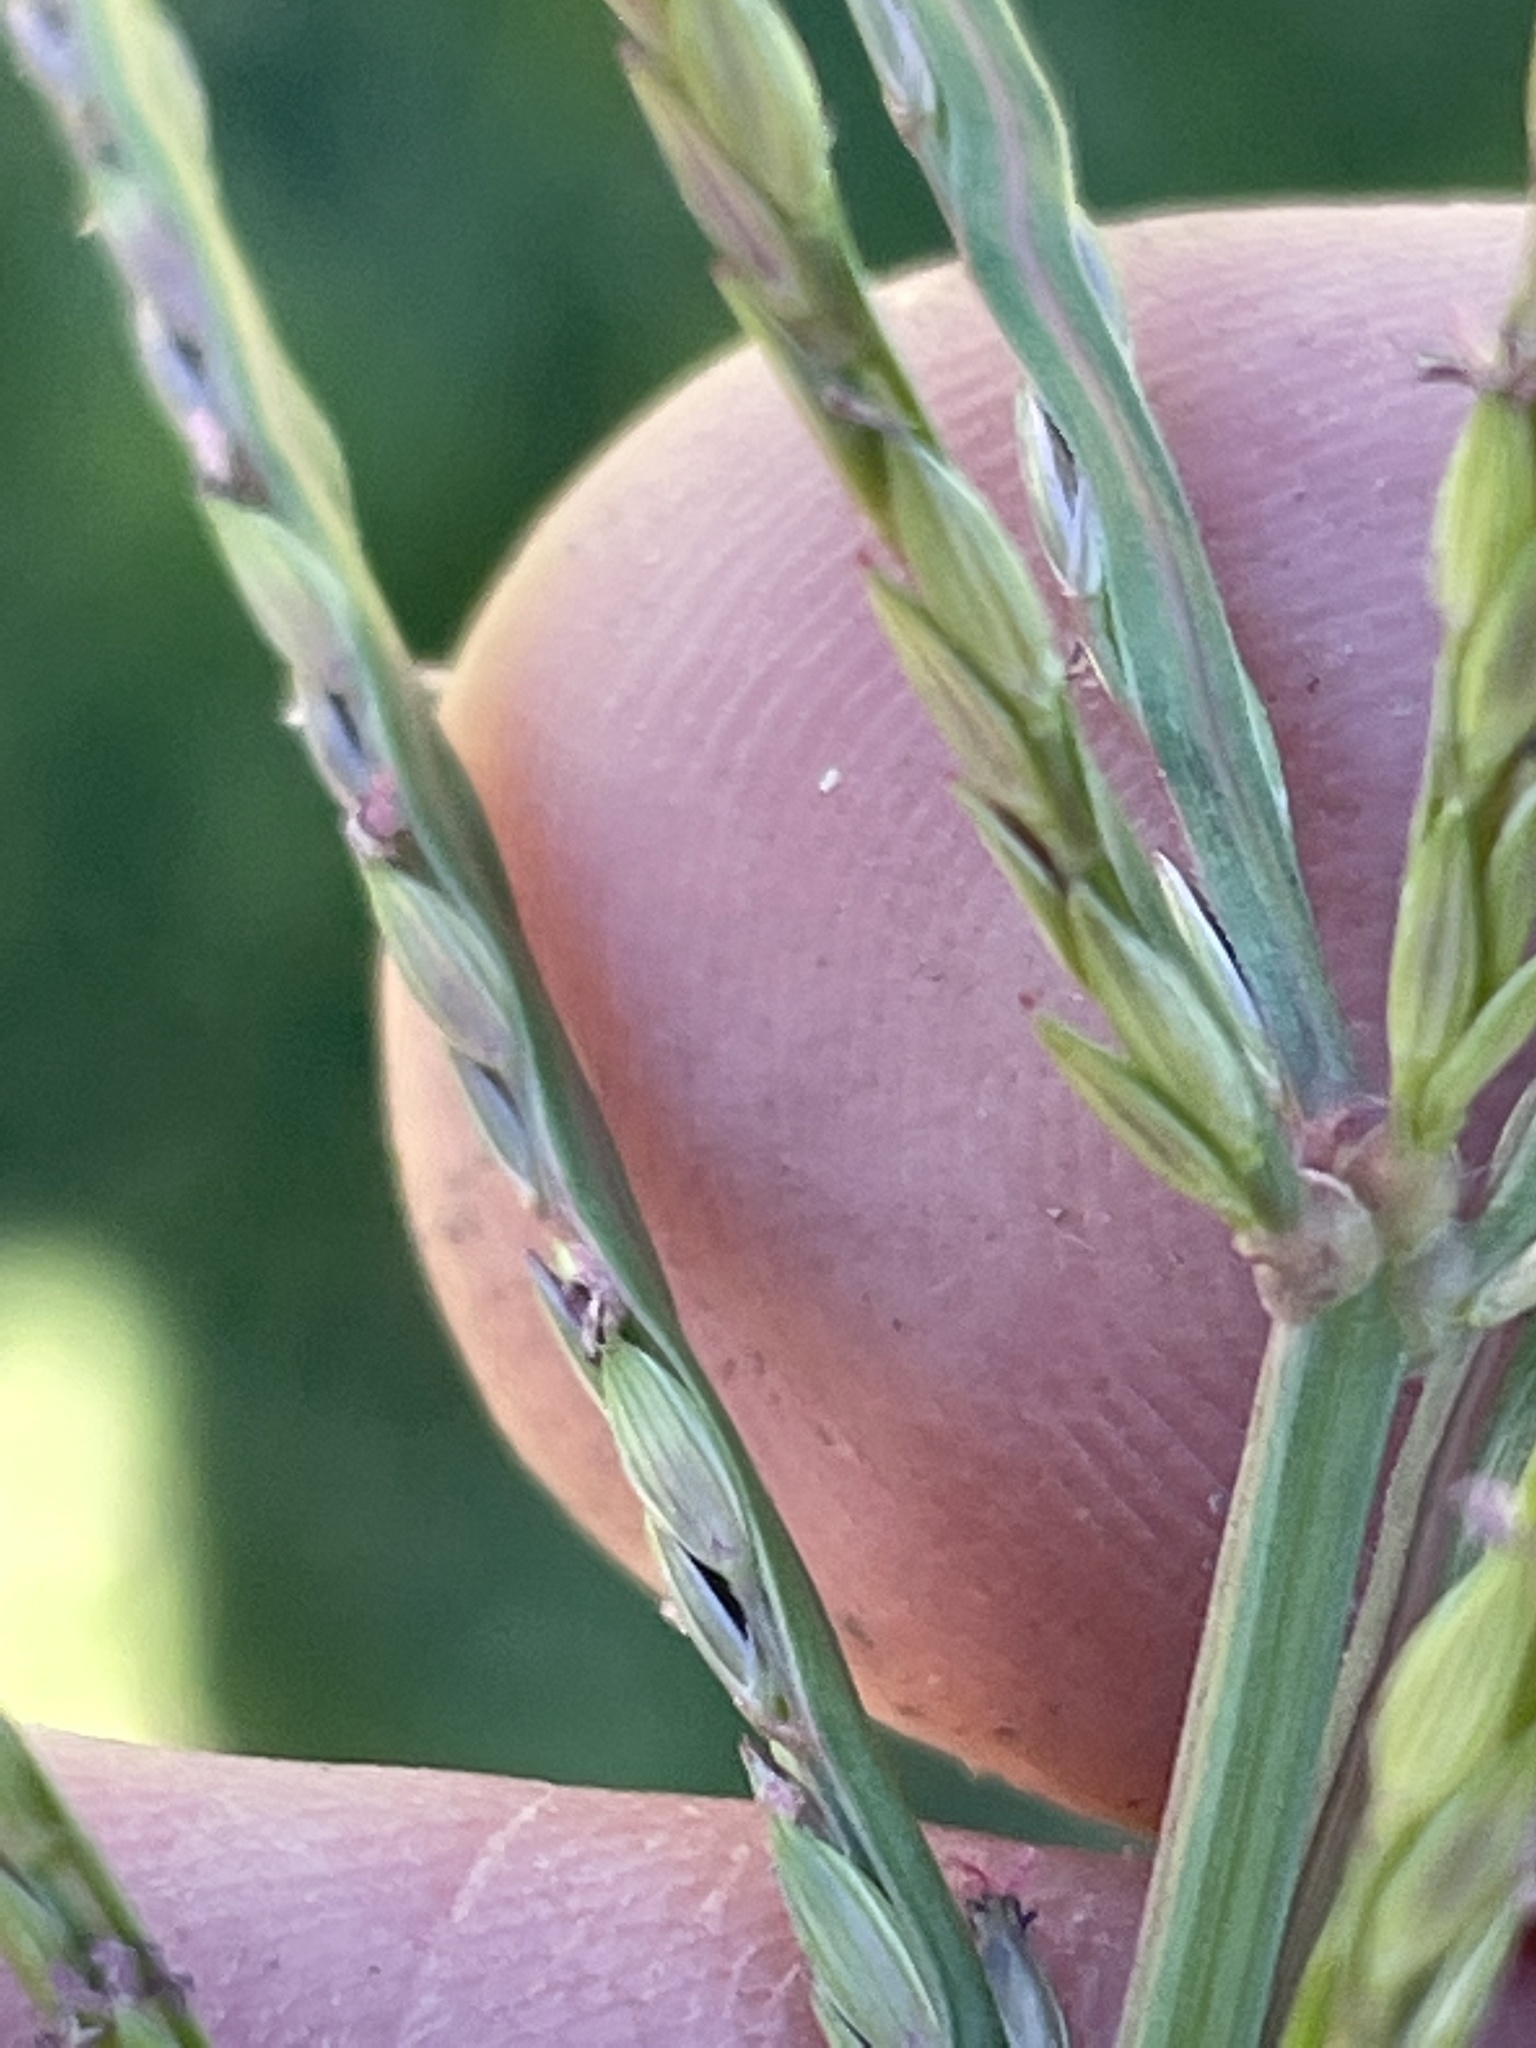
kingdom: Plantae
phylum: Tracheophyta
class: Liliopsida
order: Poales
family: Poaceae
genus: Digitaria
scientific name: Digitaria sanguinalis
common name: Hairy crabgrass
